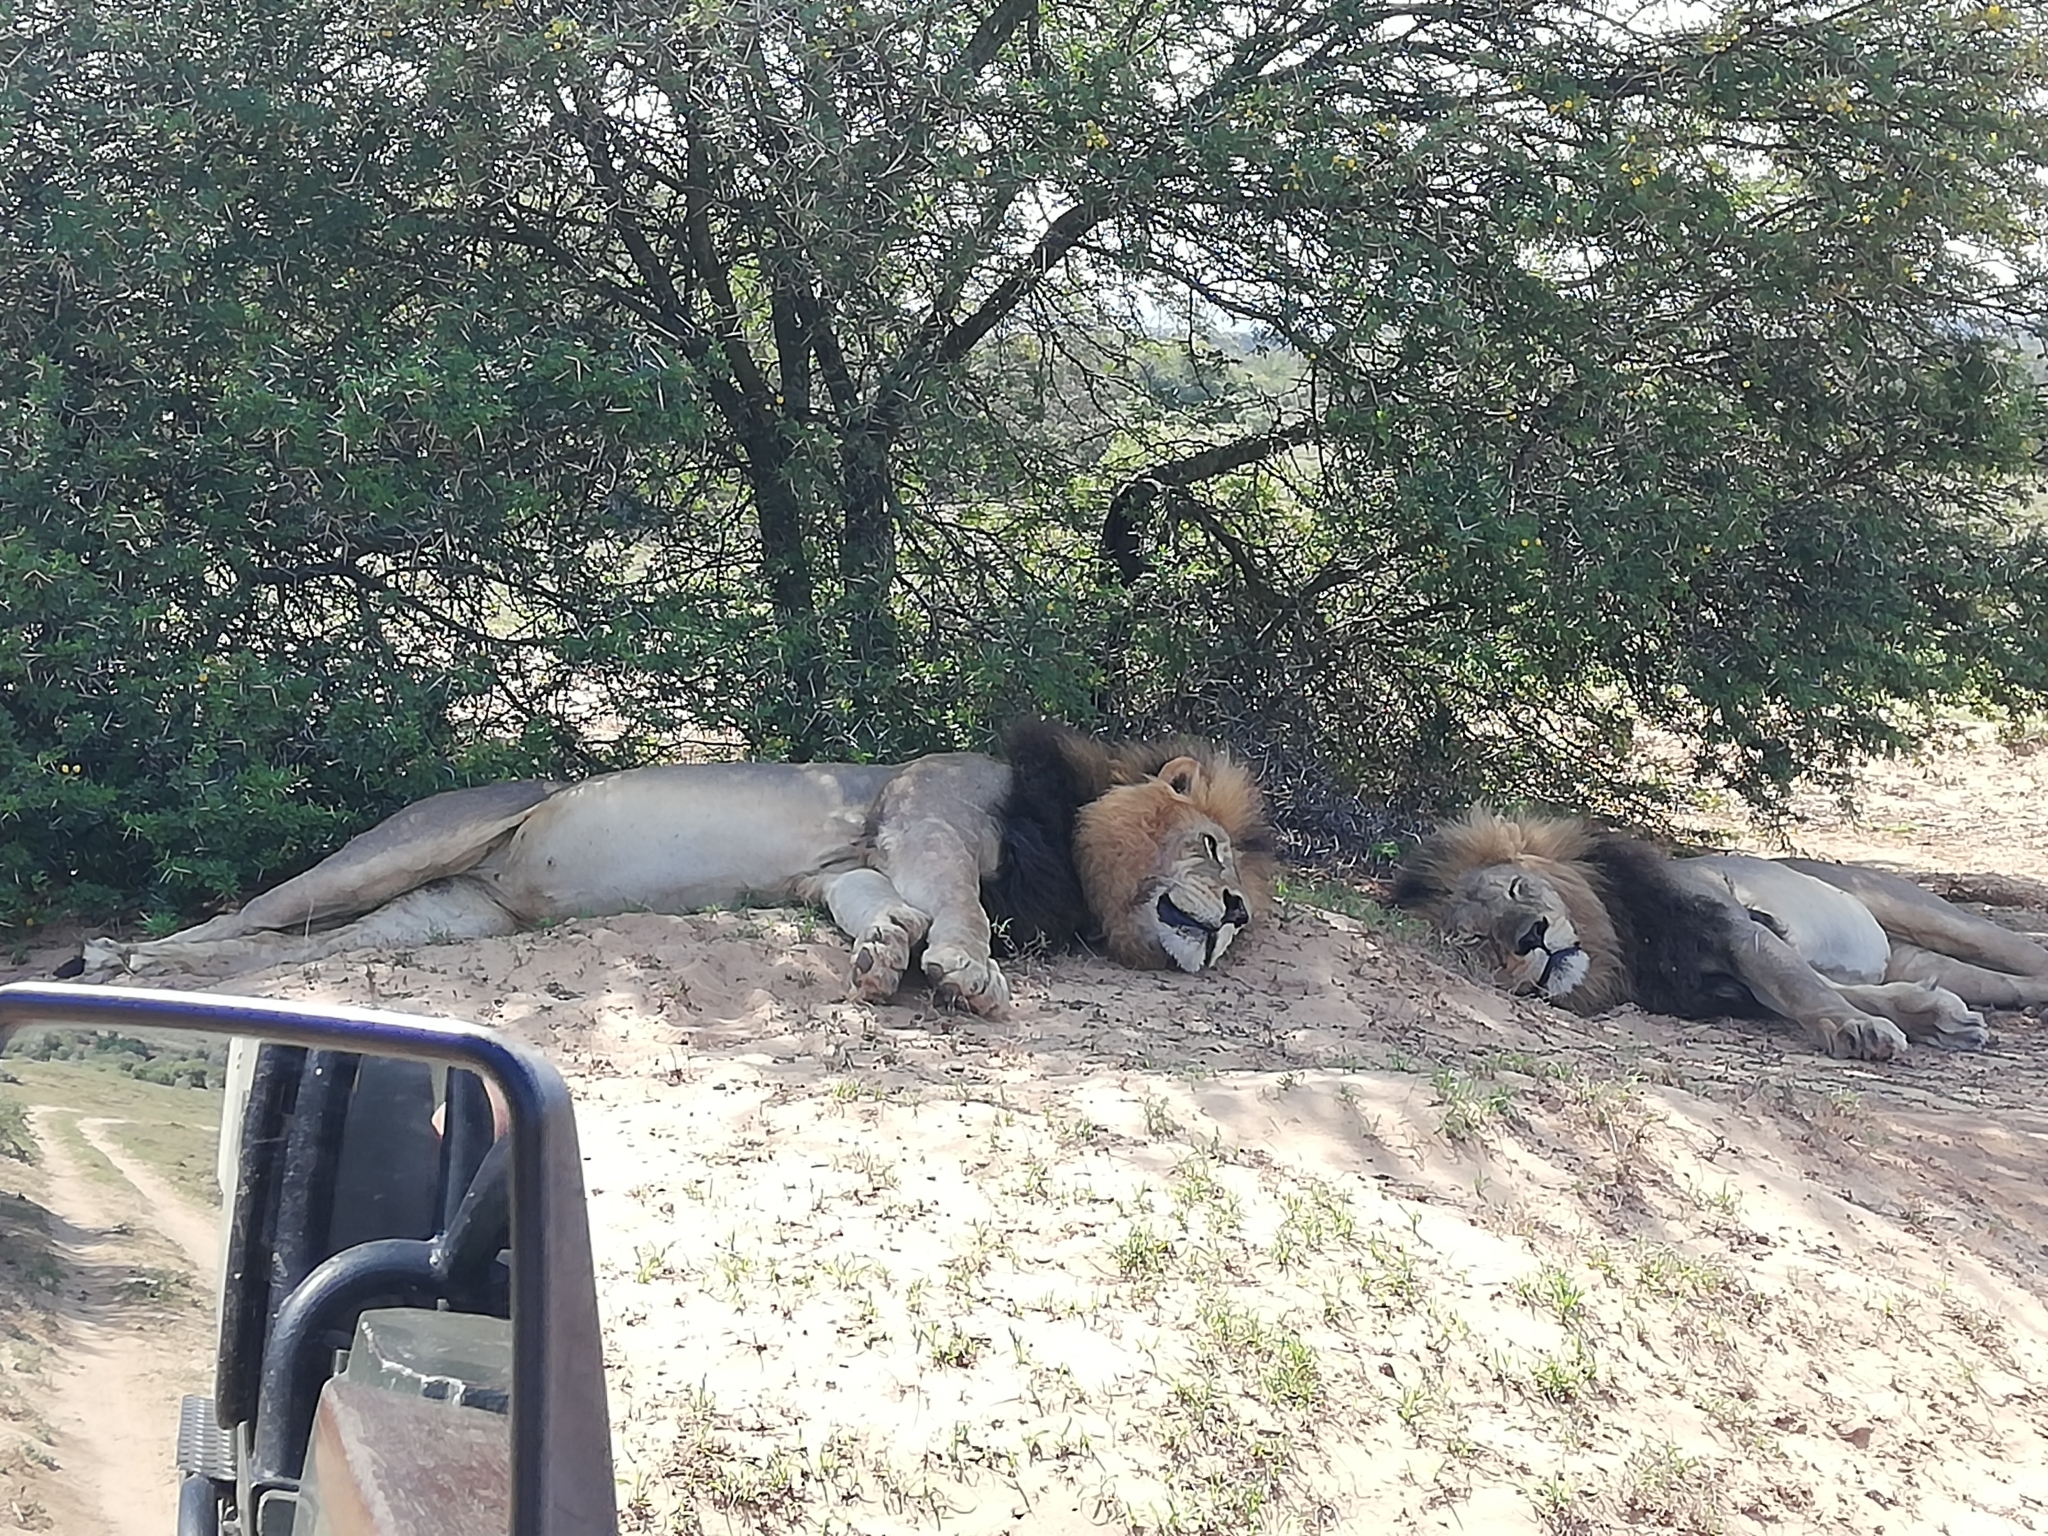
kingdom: Animalia
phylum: Chordata
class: Mammalia
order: Carnivora
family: Felidae
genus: Panthera
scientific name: Panthera leo
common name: Lion
